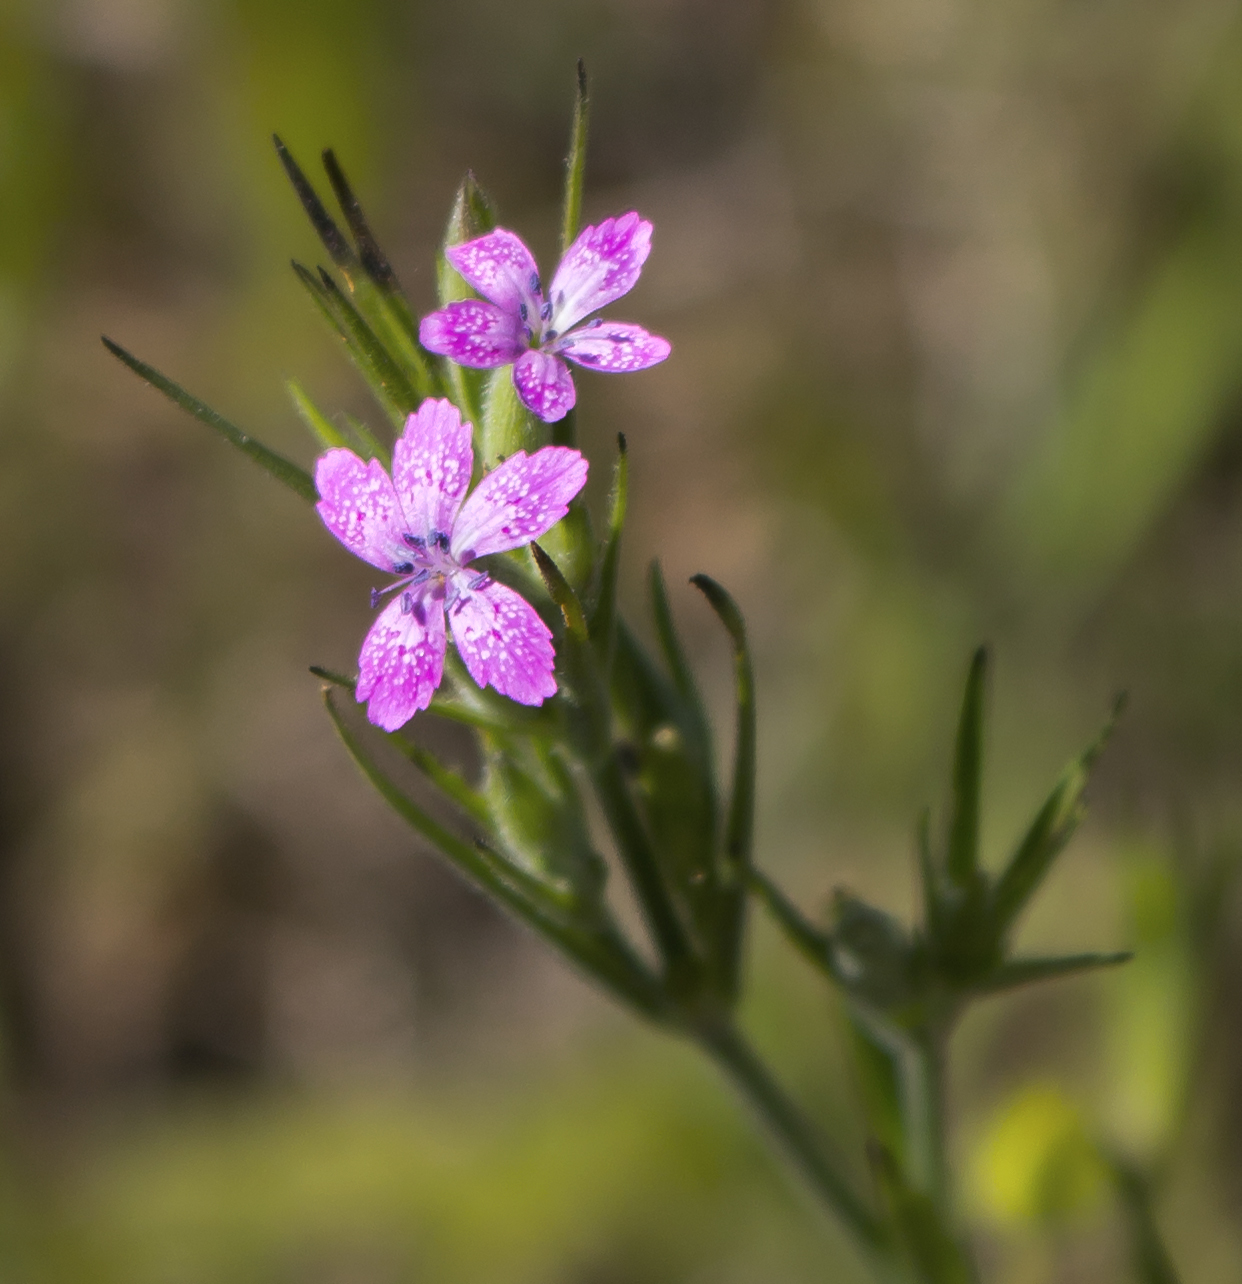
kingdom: Plantae
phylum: Tracheophyta
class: Magnoliopsida
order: Caryophyllales
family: Caryophyllaceae
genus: Dianthus
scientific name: Dianthus armeria
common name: Deptford pink
